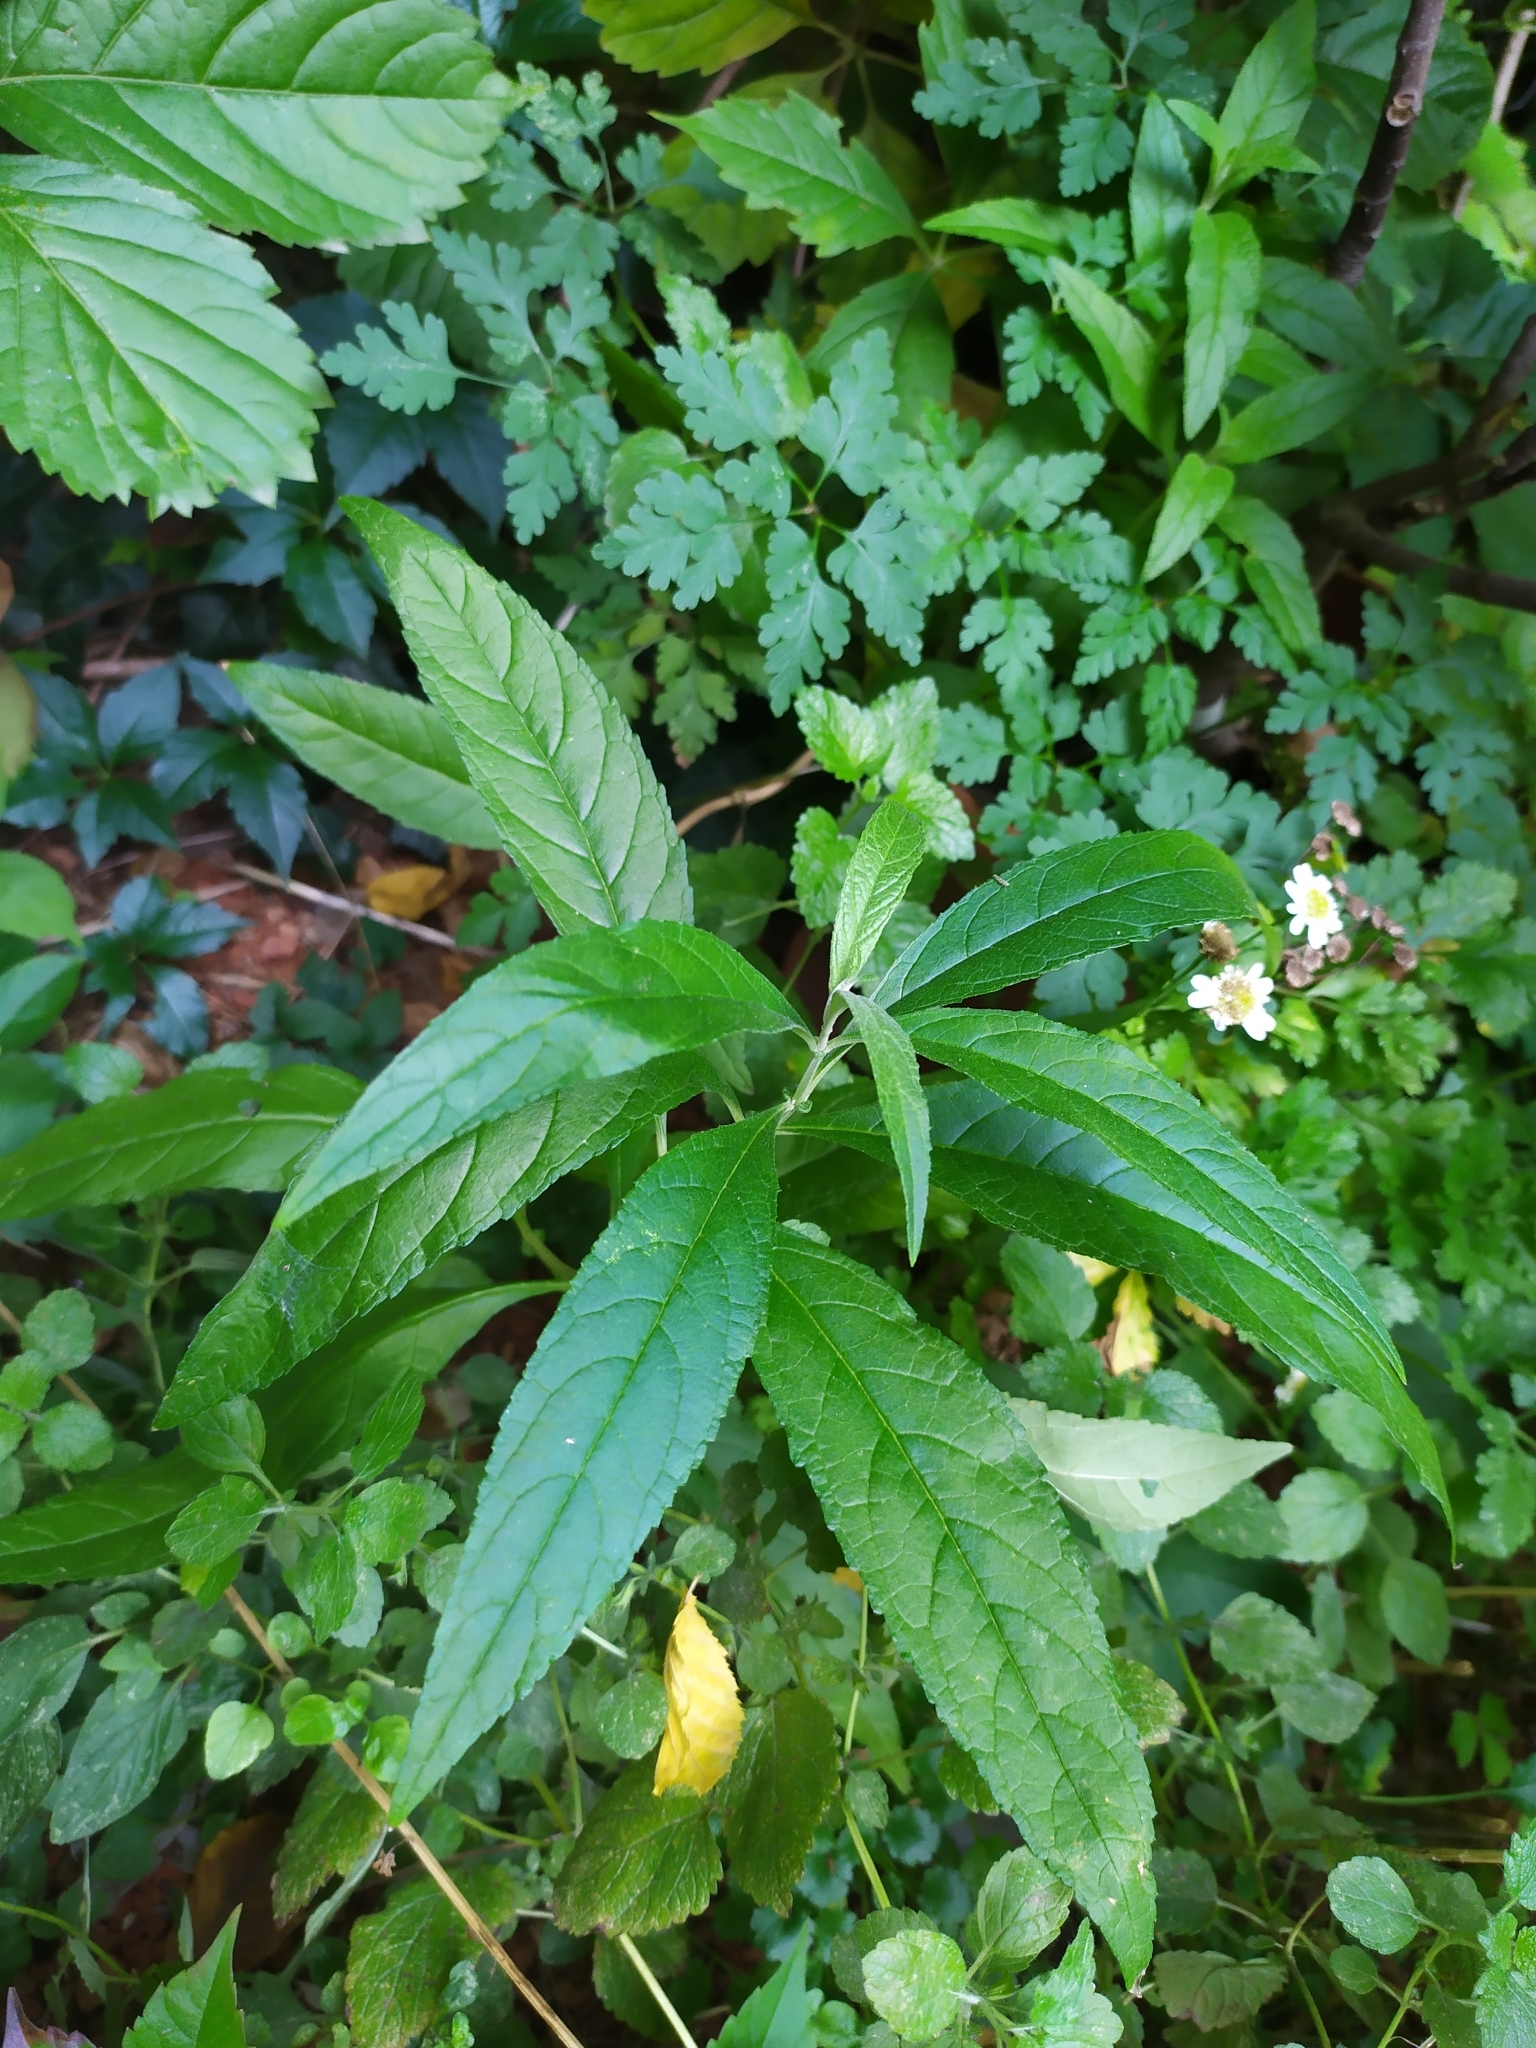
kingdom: Plantae
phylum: Tracheophyta
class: Magnoliopsida
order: Lamiales
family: Scrophulariaceae
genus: Buddleja
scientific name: Buddleja davidii
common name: Butterfly-bush
